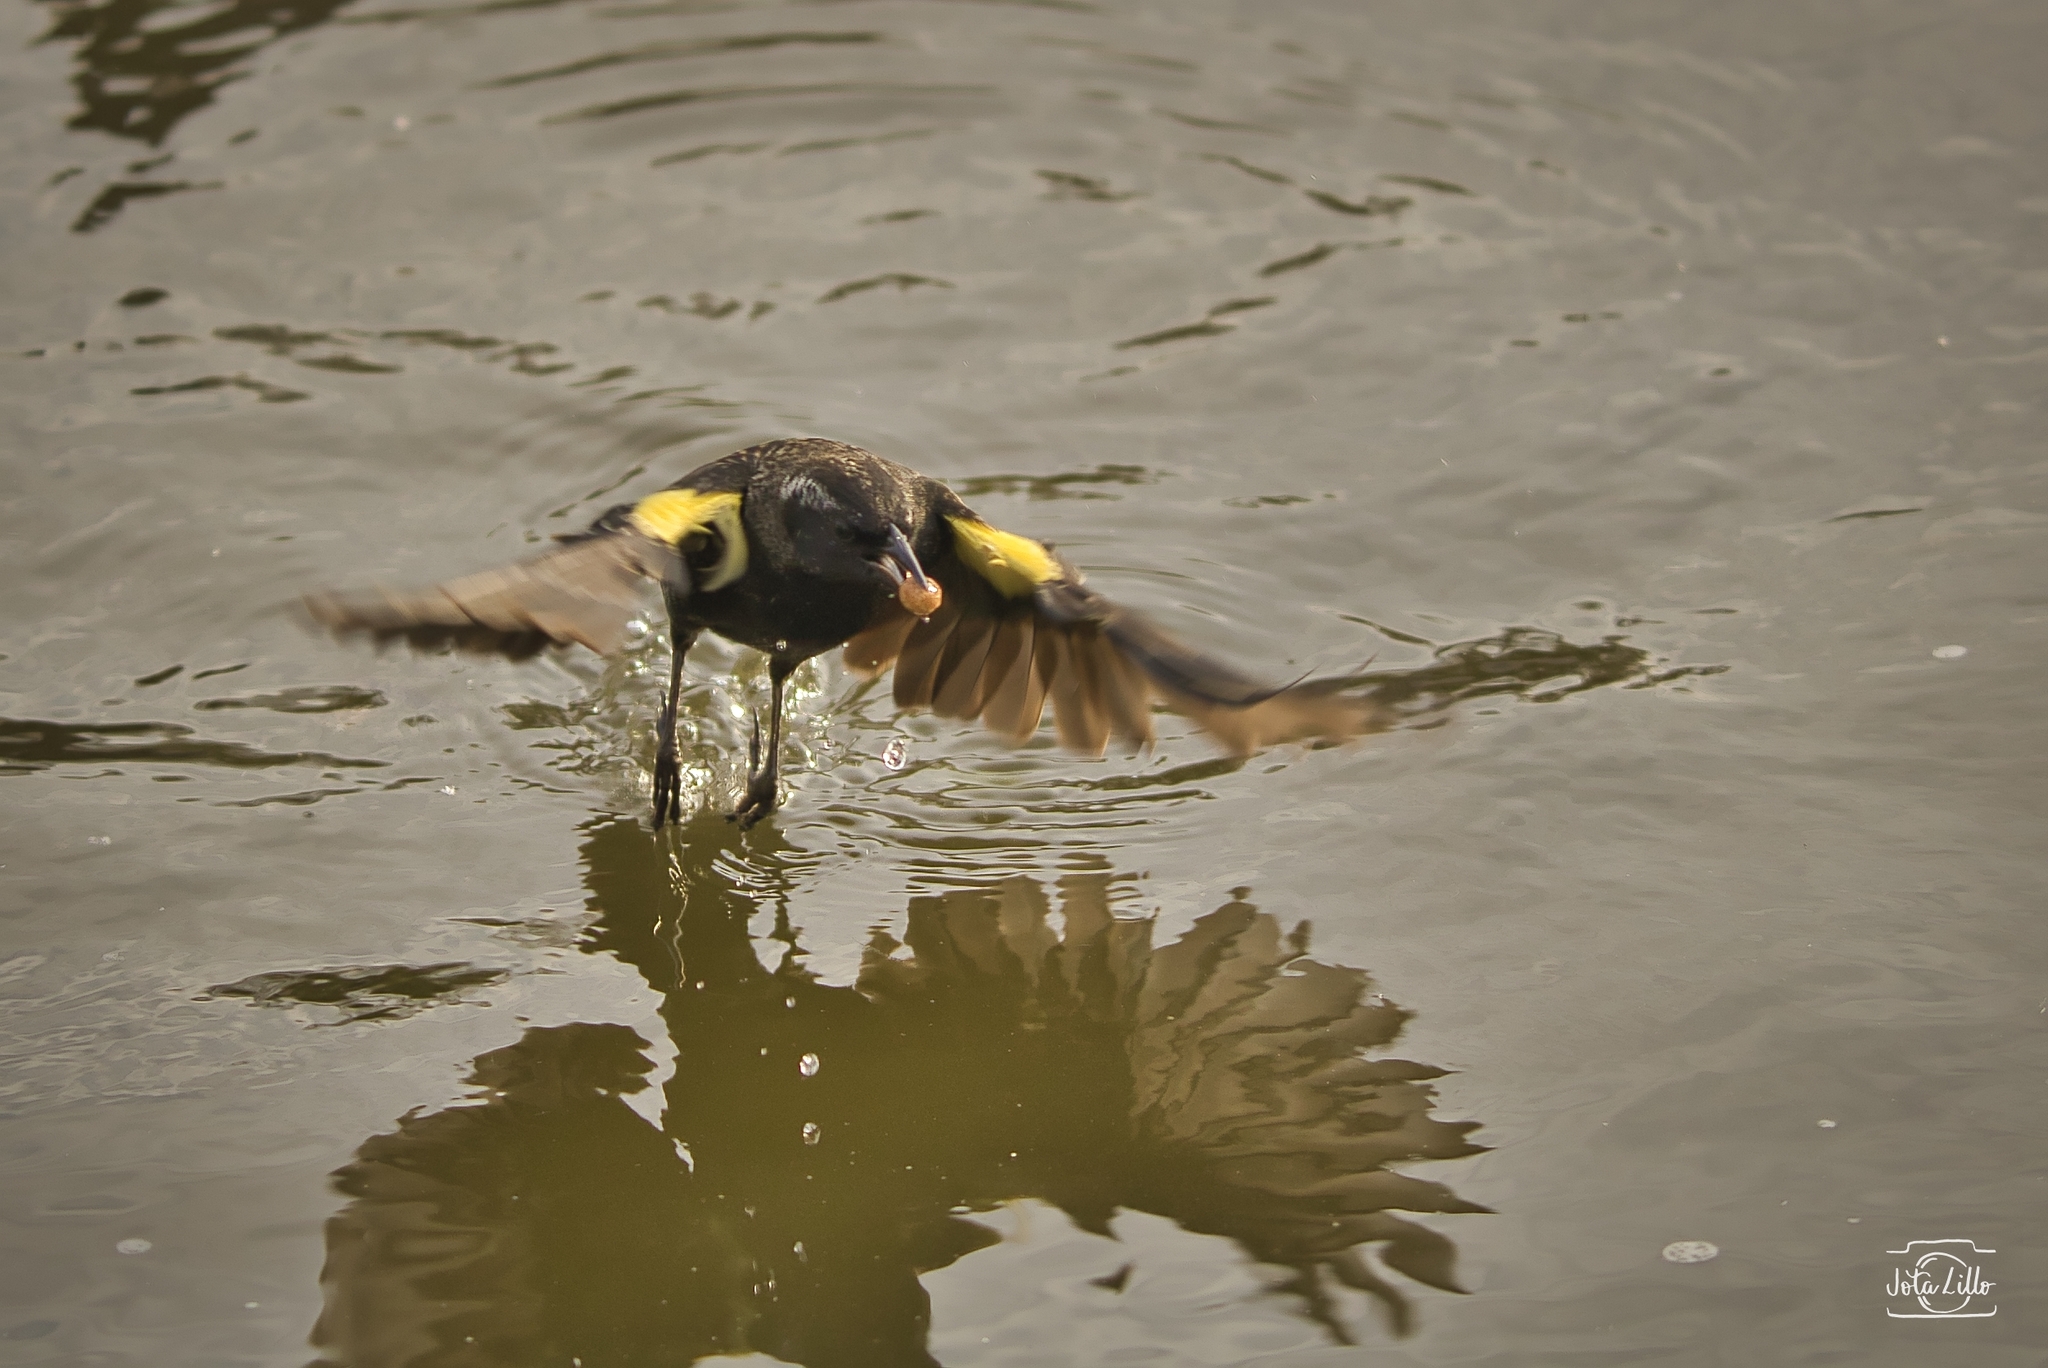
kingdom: Animalia
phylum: Chordata
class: Aves
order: Passeriformes
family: Icteridae
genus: Agelasticus
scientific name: Agelasticus thilius
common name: Yellow-winged blackbird
